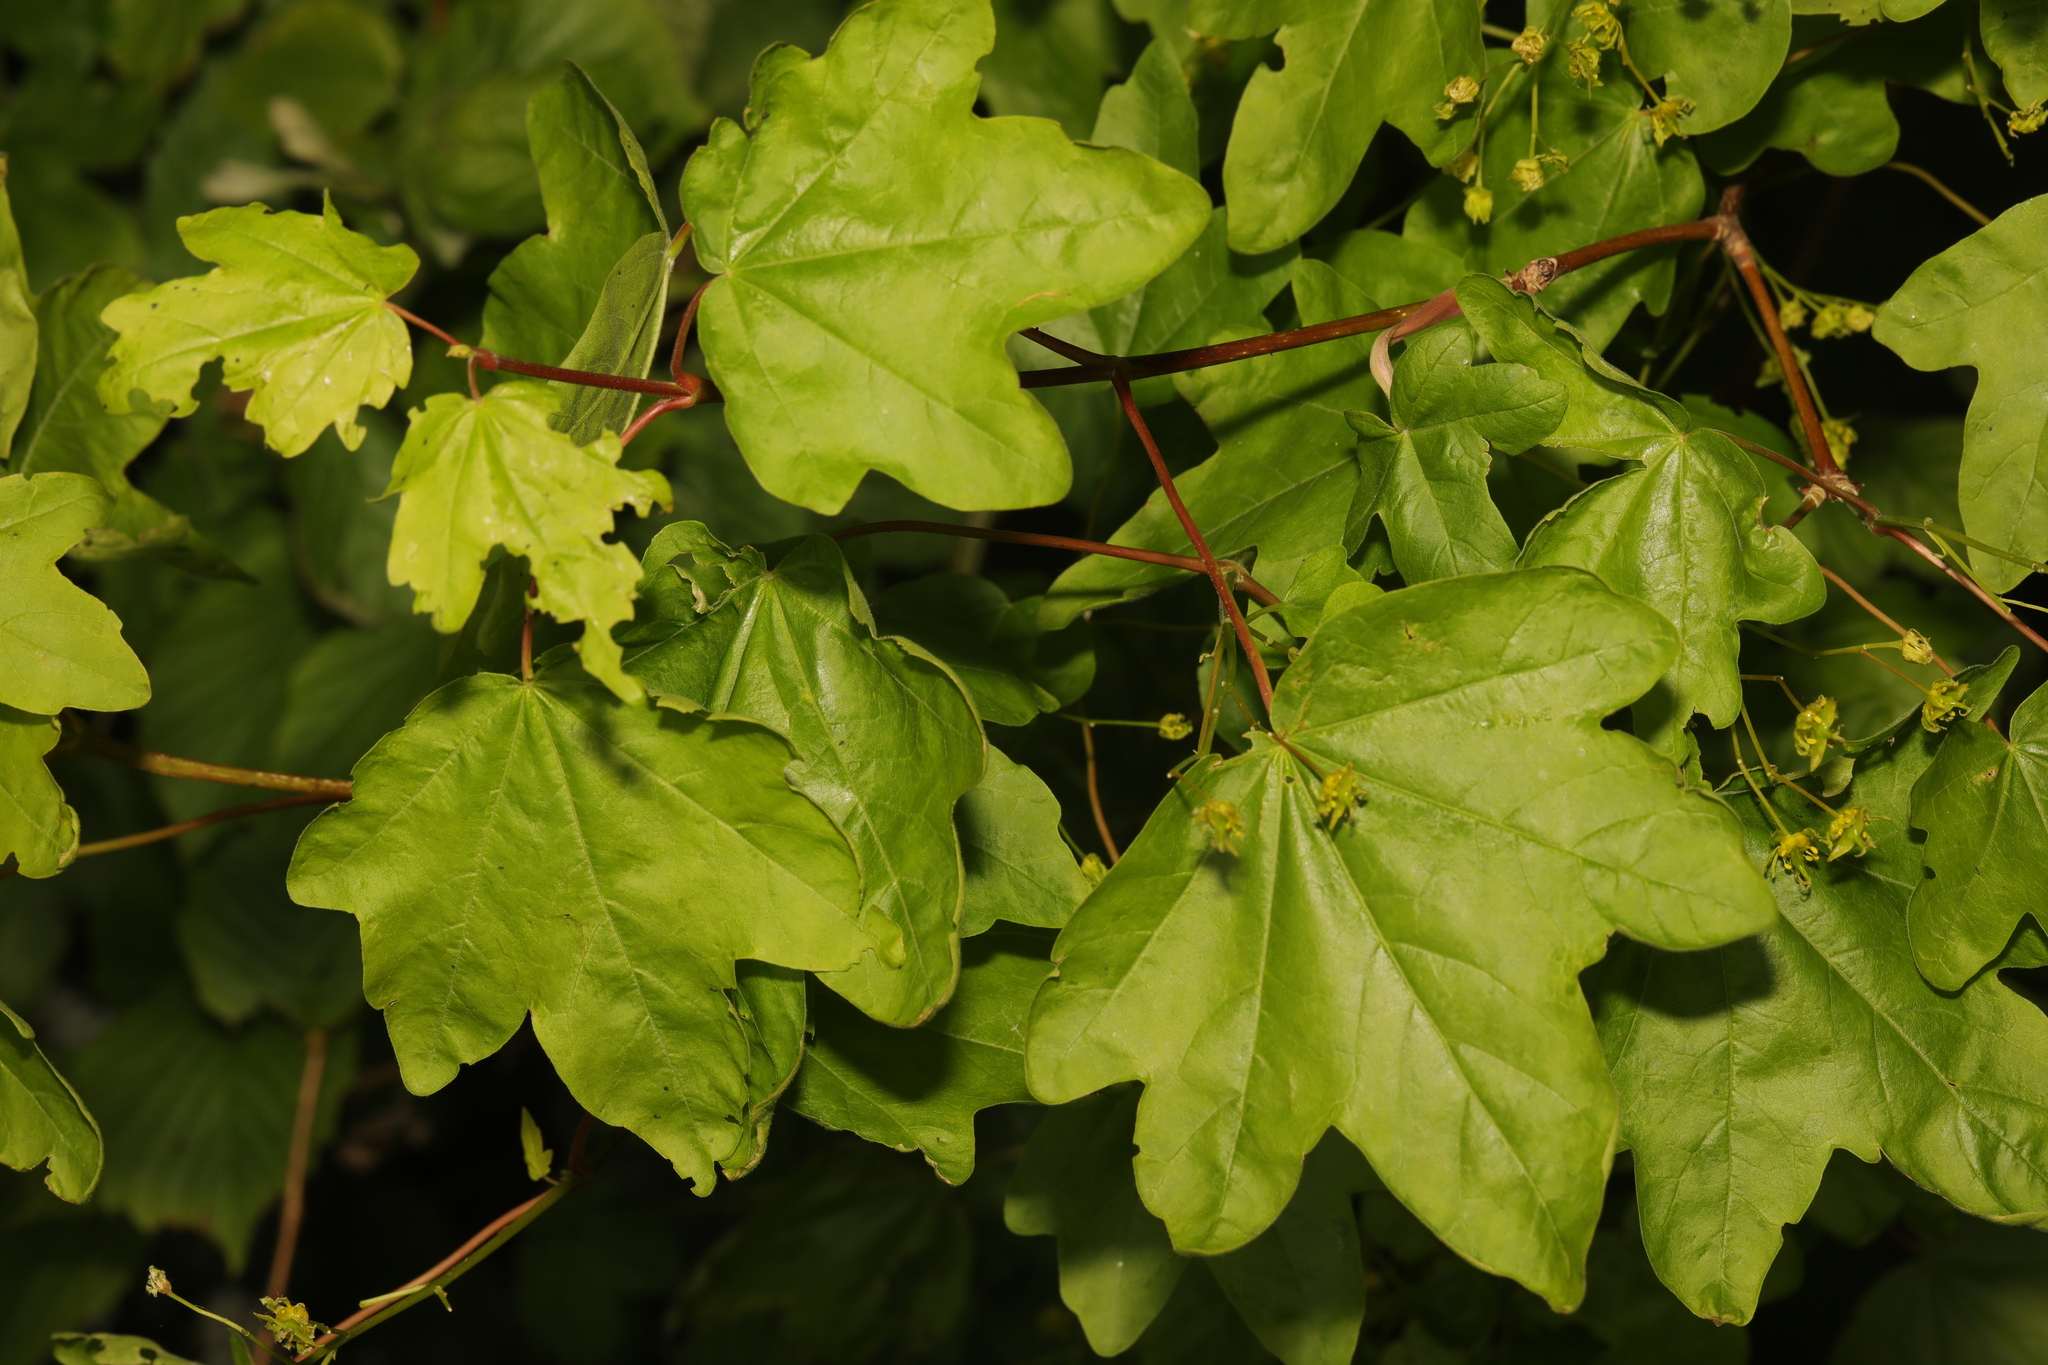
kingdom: Plantae
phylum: Tracheophyta
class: Magnoliopsida
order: Sapindales
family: Sapindaceae
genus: Acer
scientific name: Acer campestre
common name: Field maple
